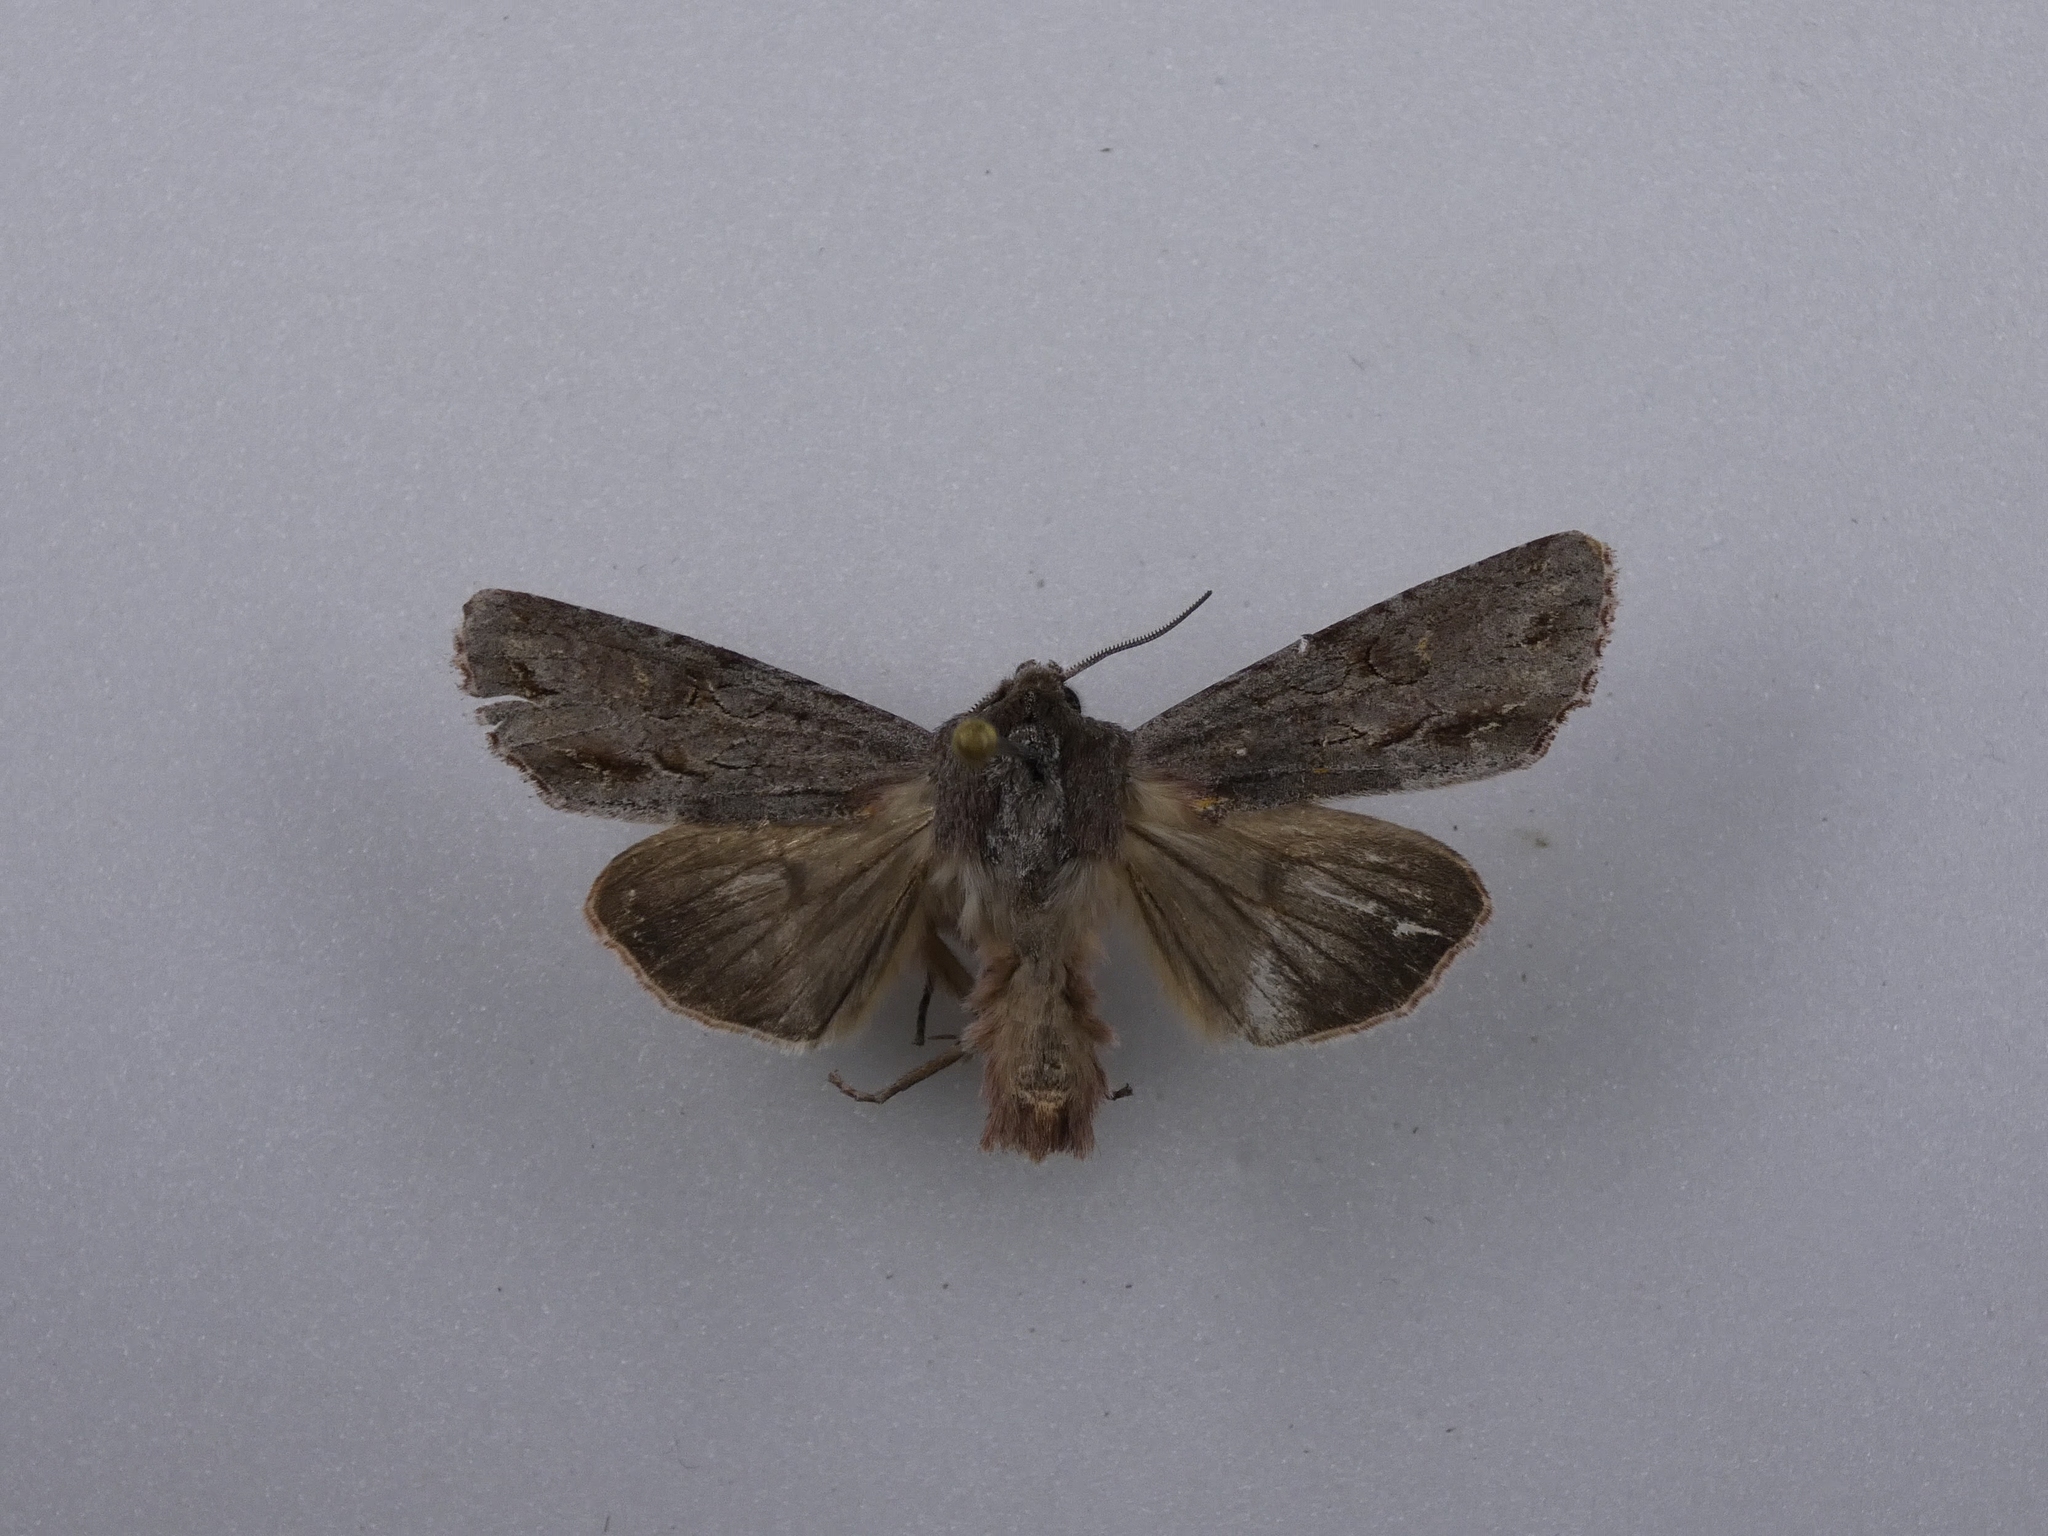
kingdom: Animalia
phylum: Arthropoda
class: Insecta
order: Lepidoptera
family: Noctuidae
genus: Ichneutica
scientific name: Ichneutica
